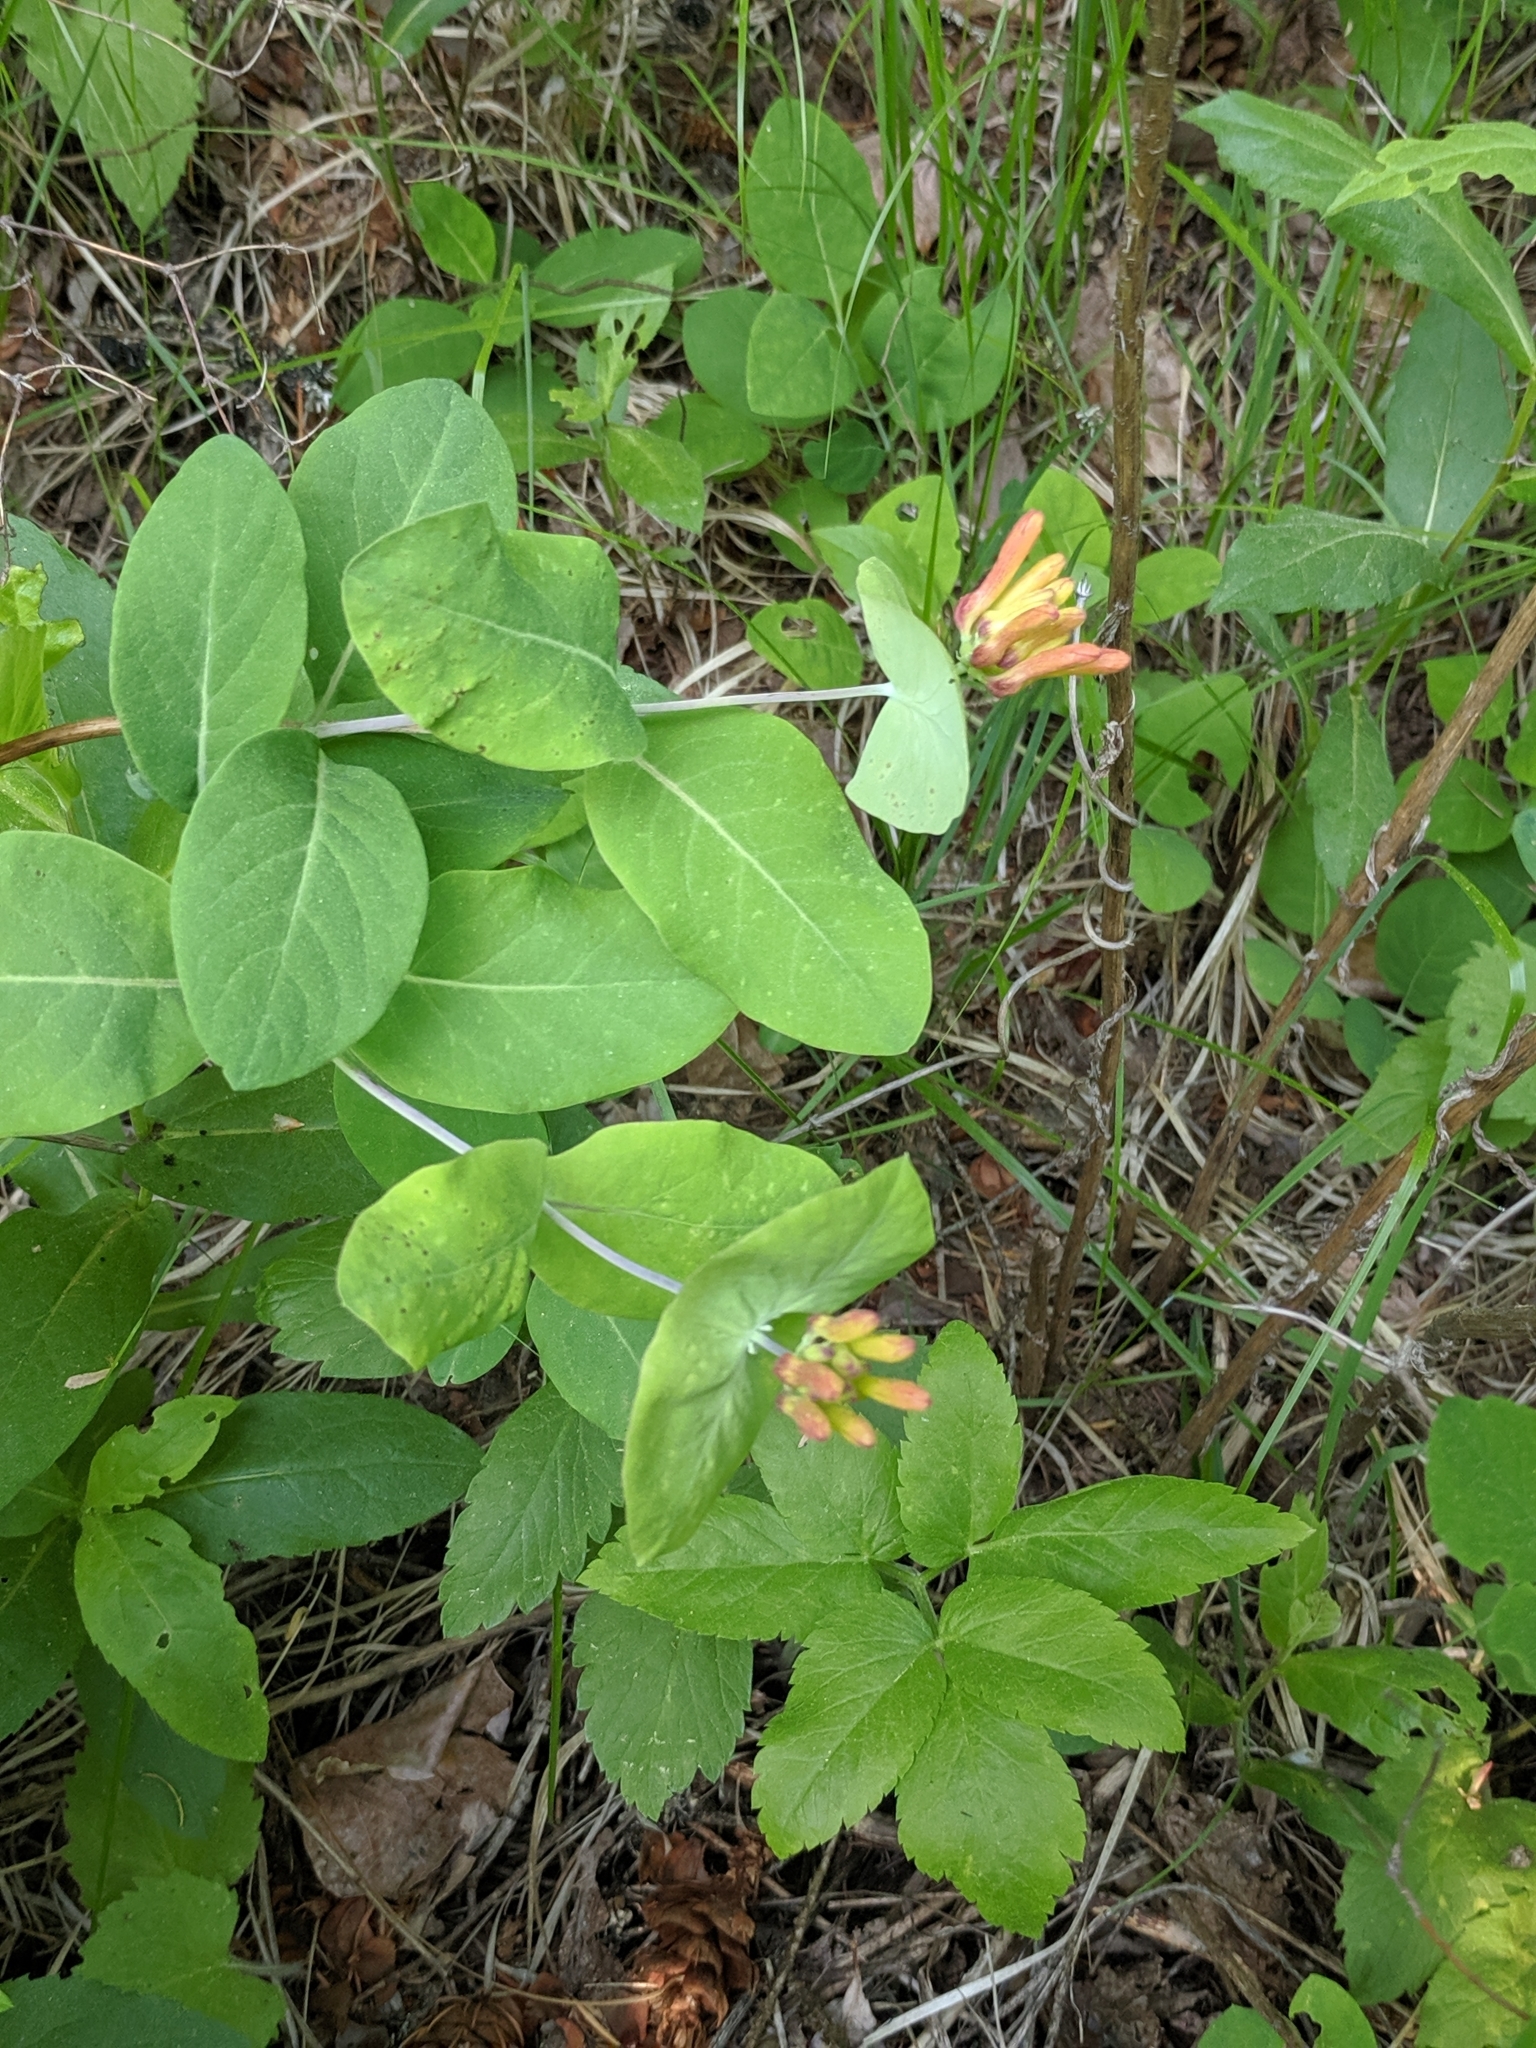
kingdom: Plantae
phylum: Tracheophyta
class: Magnoliopsida
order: Dipsacales
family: Caprifoliaceae
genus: Lonicera
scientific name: Lonicera ciliosa
